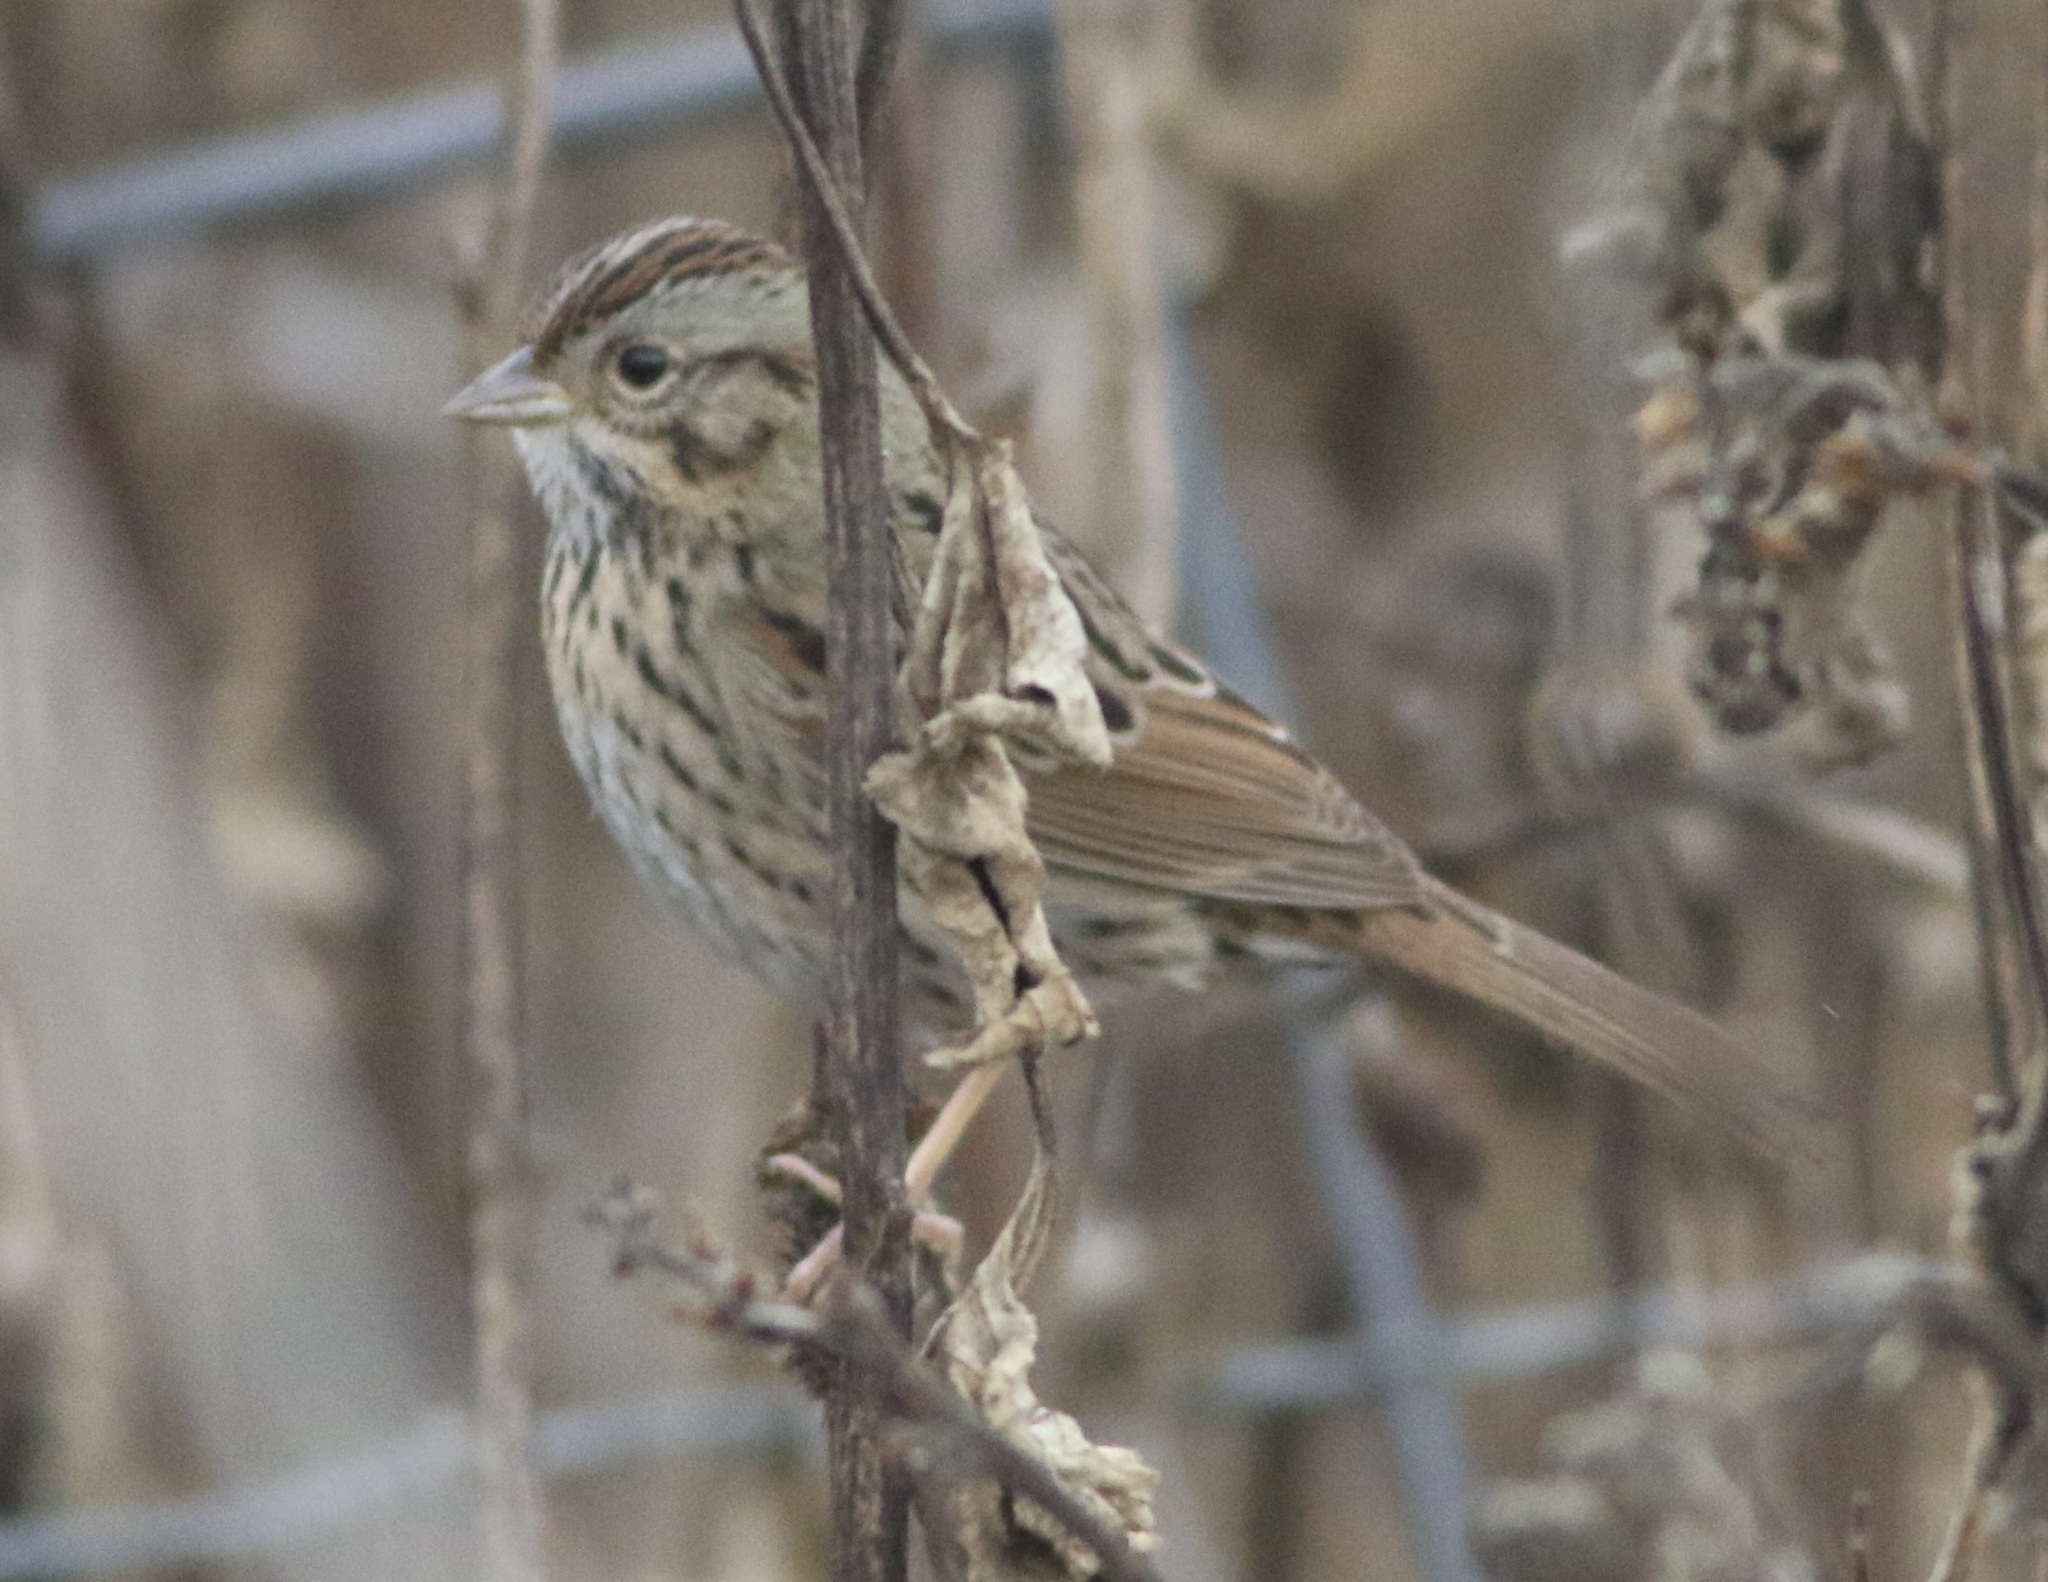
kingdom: Animalia
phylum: Chordata
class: Aves
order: Passeriformes
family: Passerellidae
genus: Melospiza
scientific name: Melospiza lincolnii
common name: Lincoln's sparrow
